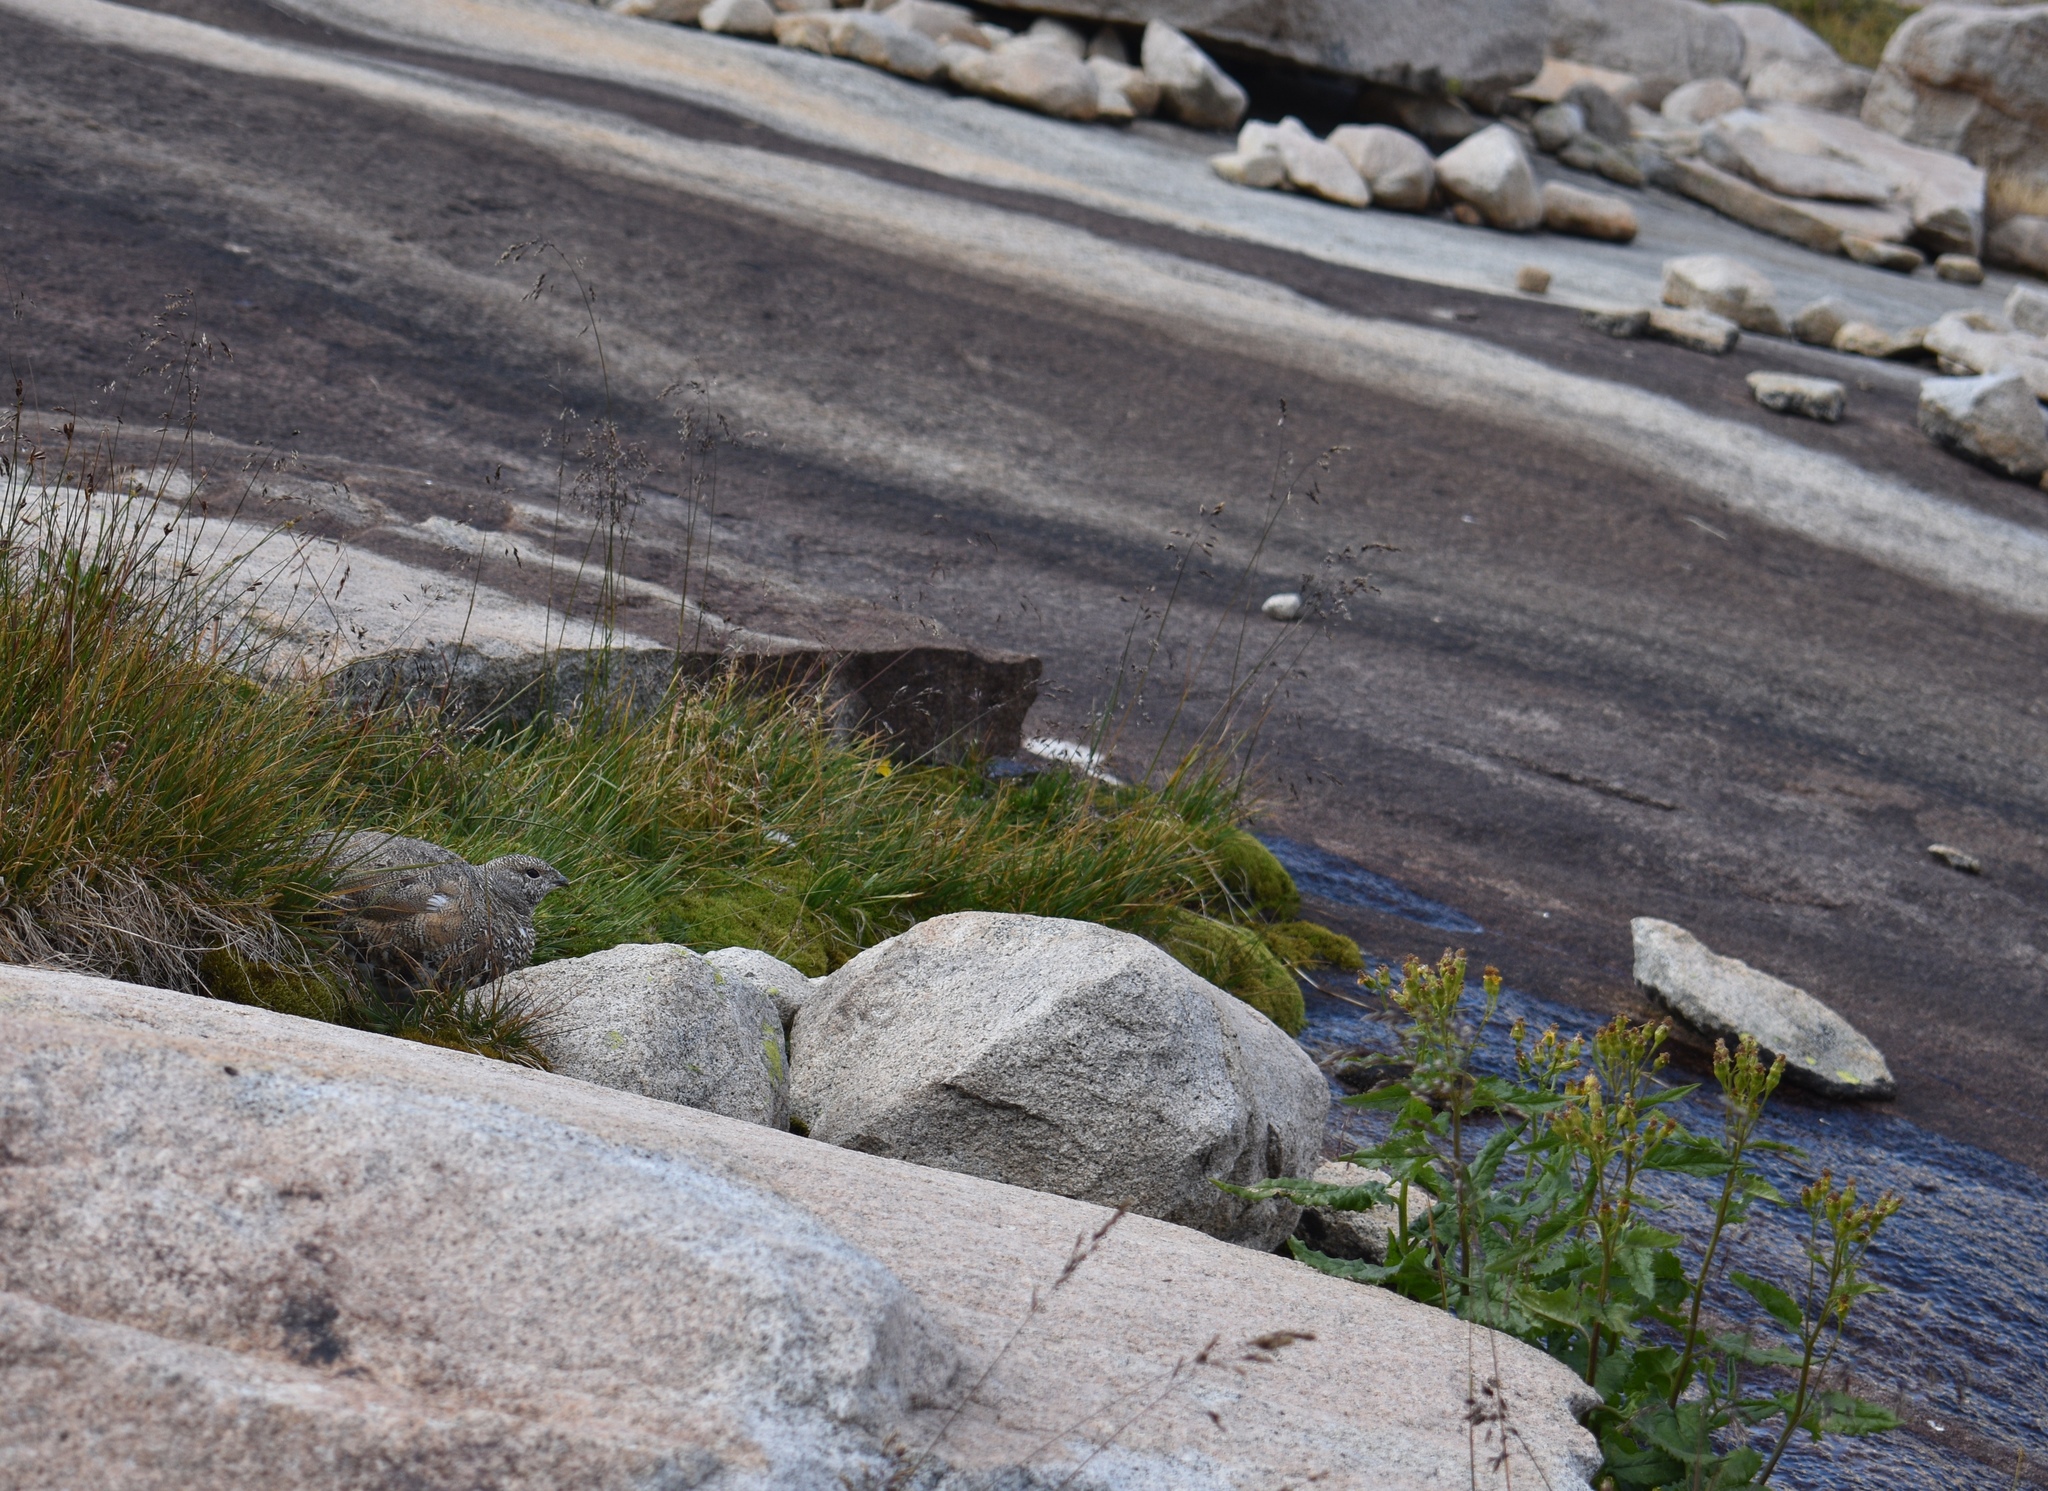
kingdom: Animalia
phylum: Chordata
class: Aves
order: Galliformes
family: Phasianidae
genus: Lagopus
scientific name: Lagopus leucura
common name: White-tailed ptarmigan
